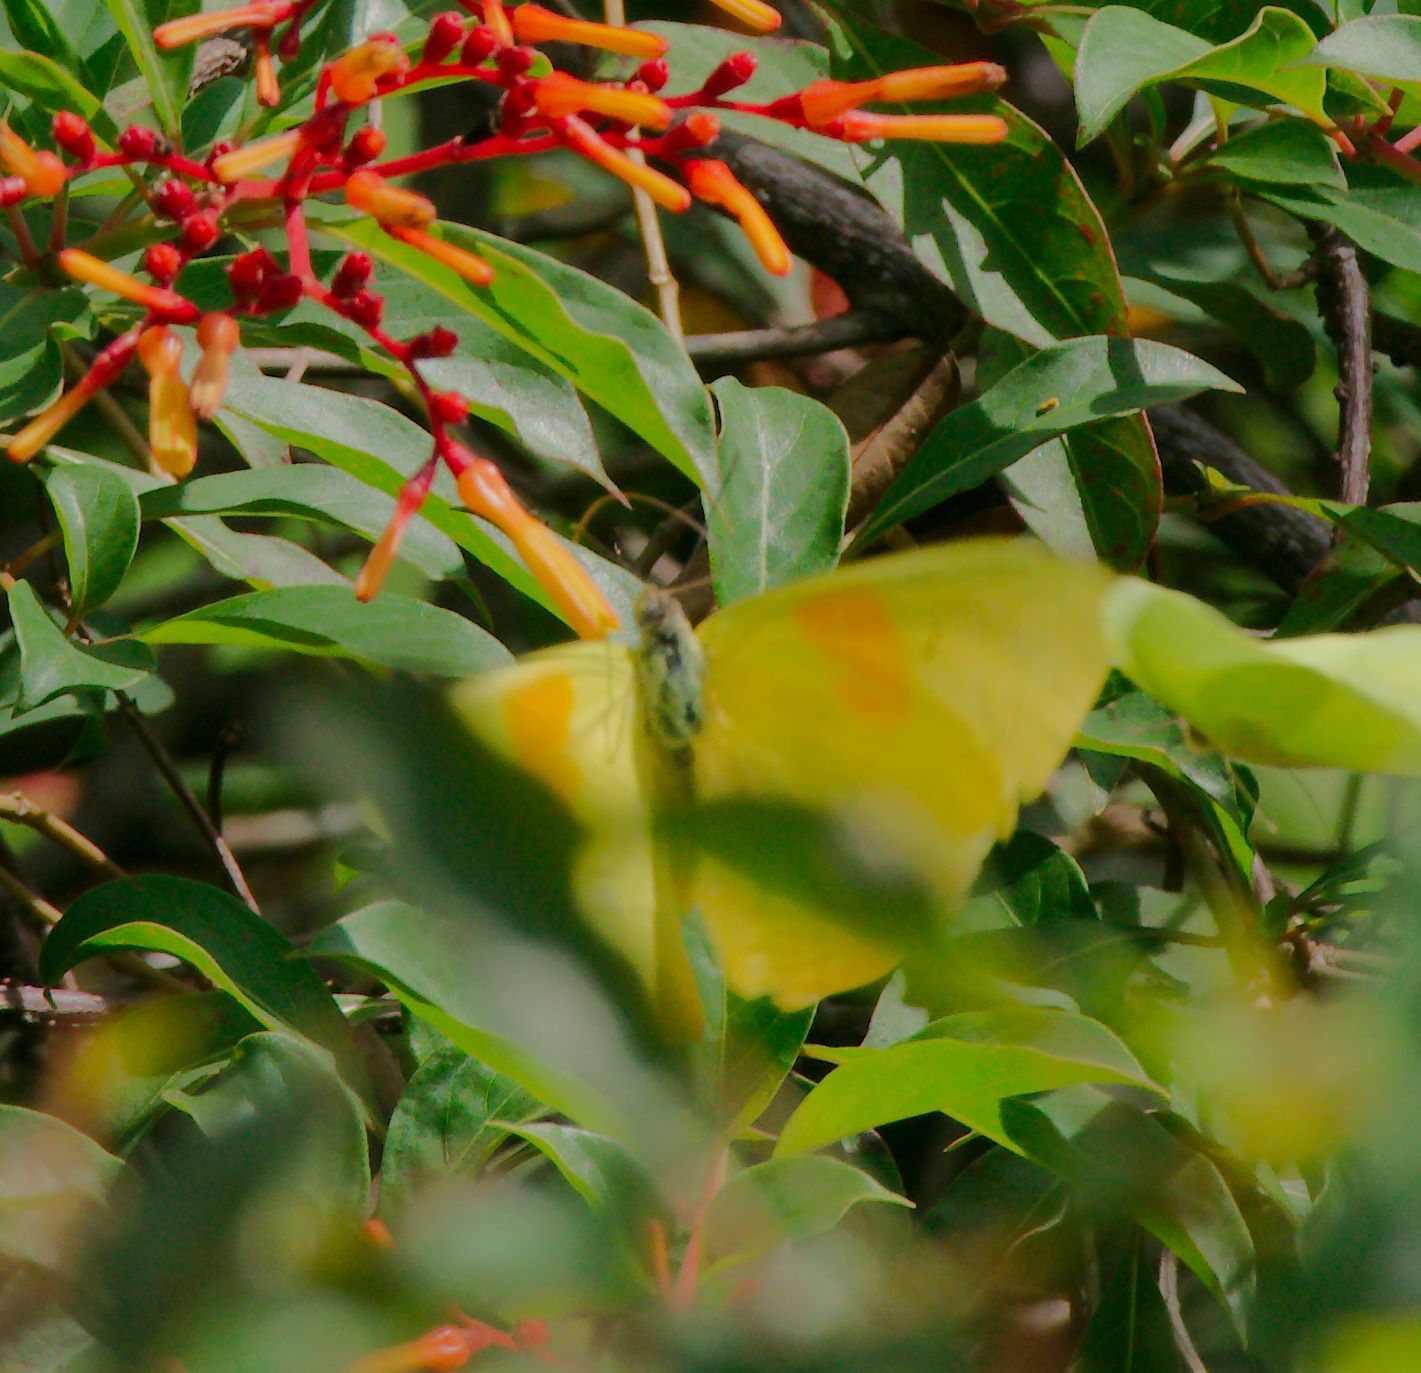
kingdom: Animalia
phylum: Arthropoda
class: Insecta
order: Lepidoptera
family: Pieridae
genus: Phoebis
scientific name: Phoebis philea
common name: Orange-barred giant sulphur
